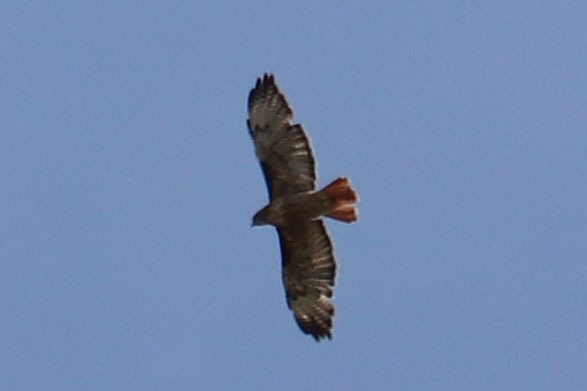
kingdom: Animalia
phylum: Chordata
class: Aves
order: Accipitriformes
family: Accipitridae
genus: Buteo
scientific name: Buteo jamaicensis
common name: Red-tailed hawk
